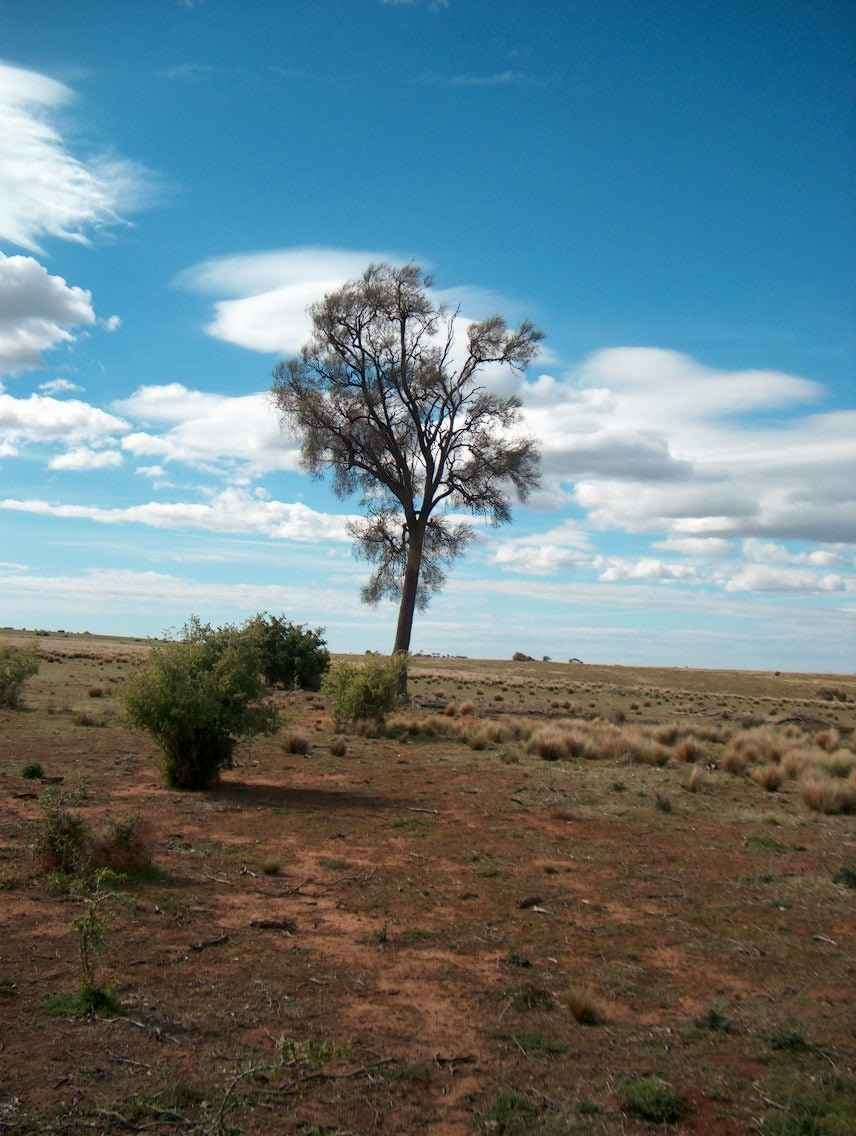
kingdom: Plantae
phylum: Tracheophyta
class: Magnoliopsida
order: Fagales
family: Casuarinaceae
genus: Allocasuarina
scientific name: Allocasuarina luehmannii
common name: Bull-oak
